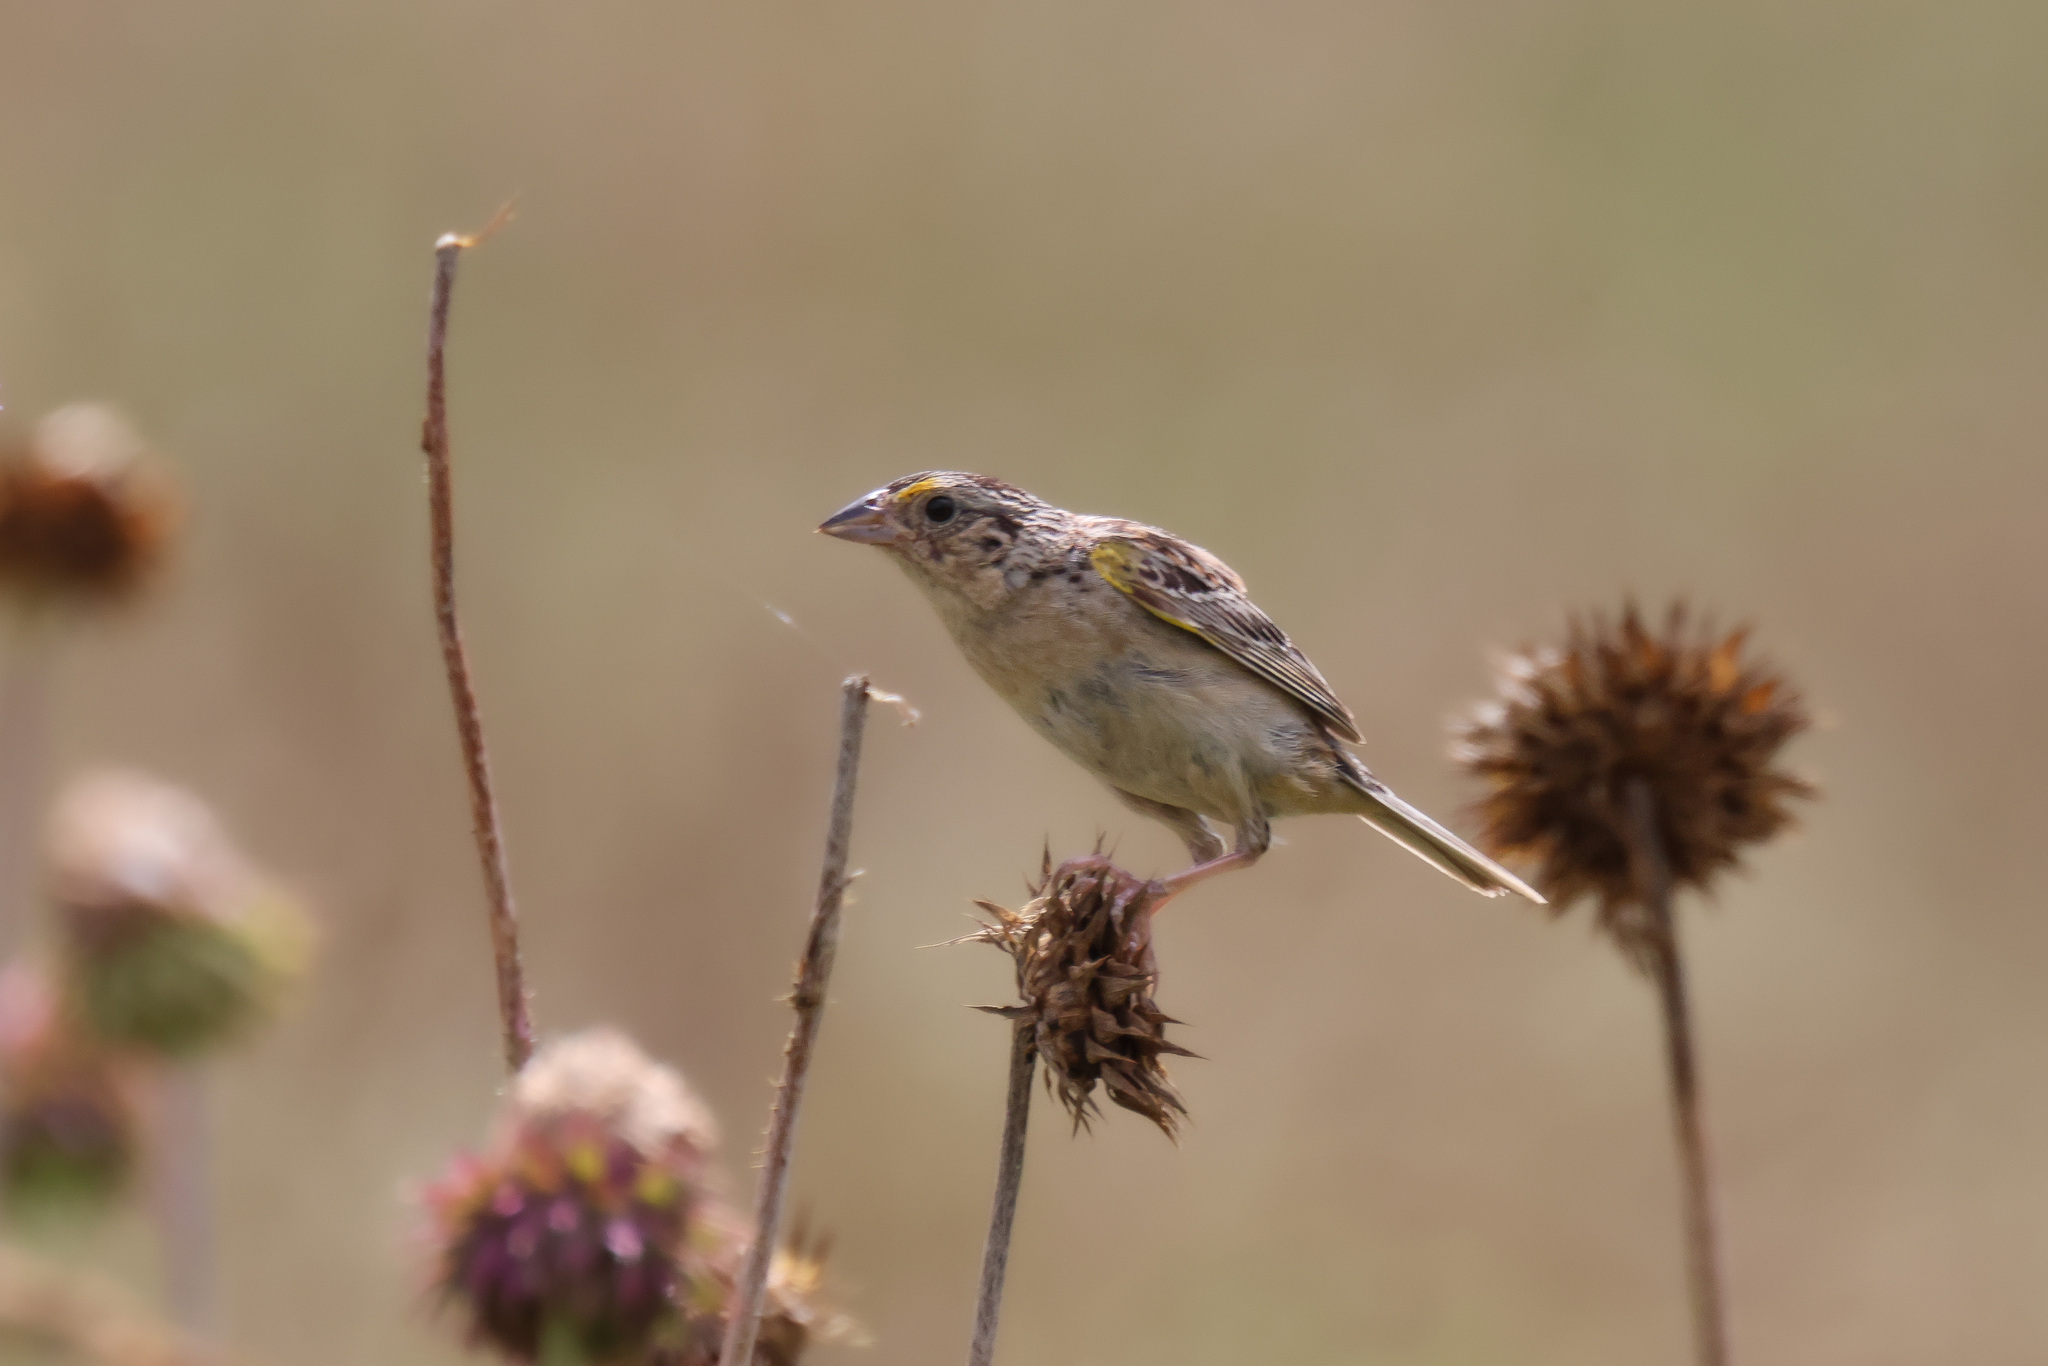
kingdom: Animalia
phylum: Chordata
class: Aves
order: Passeriformes
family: Passerellidae
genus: Ammodramus
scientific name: Ammodramus savannarum
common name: Grasshopper sparrow
